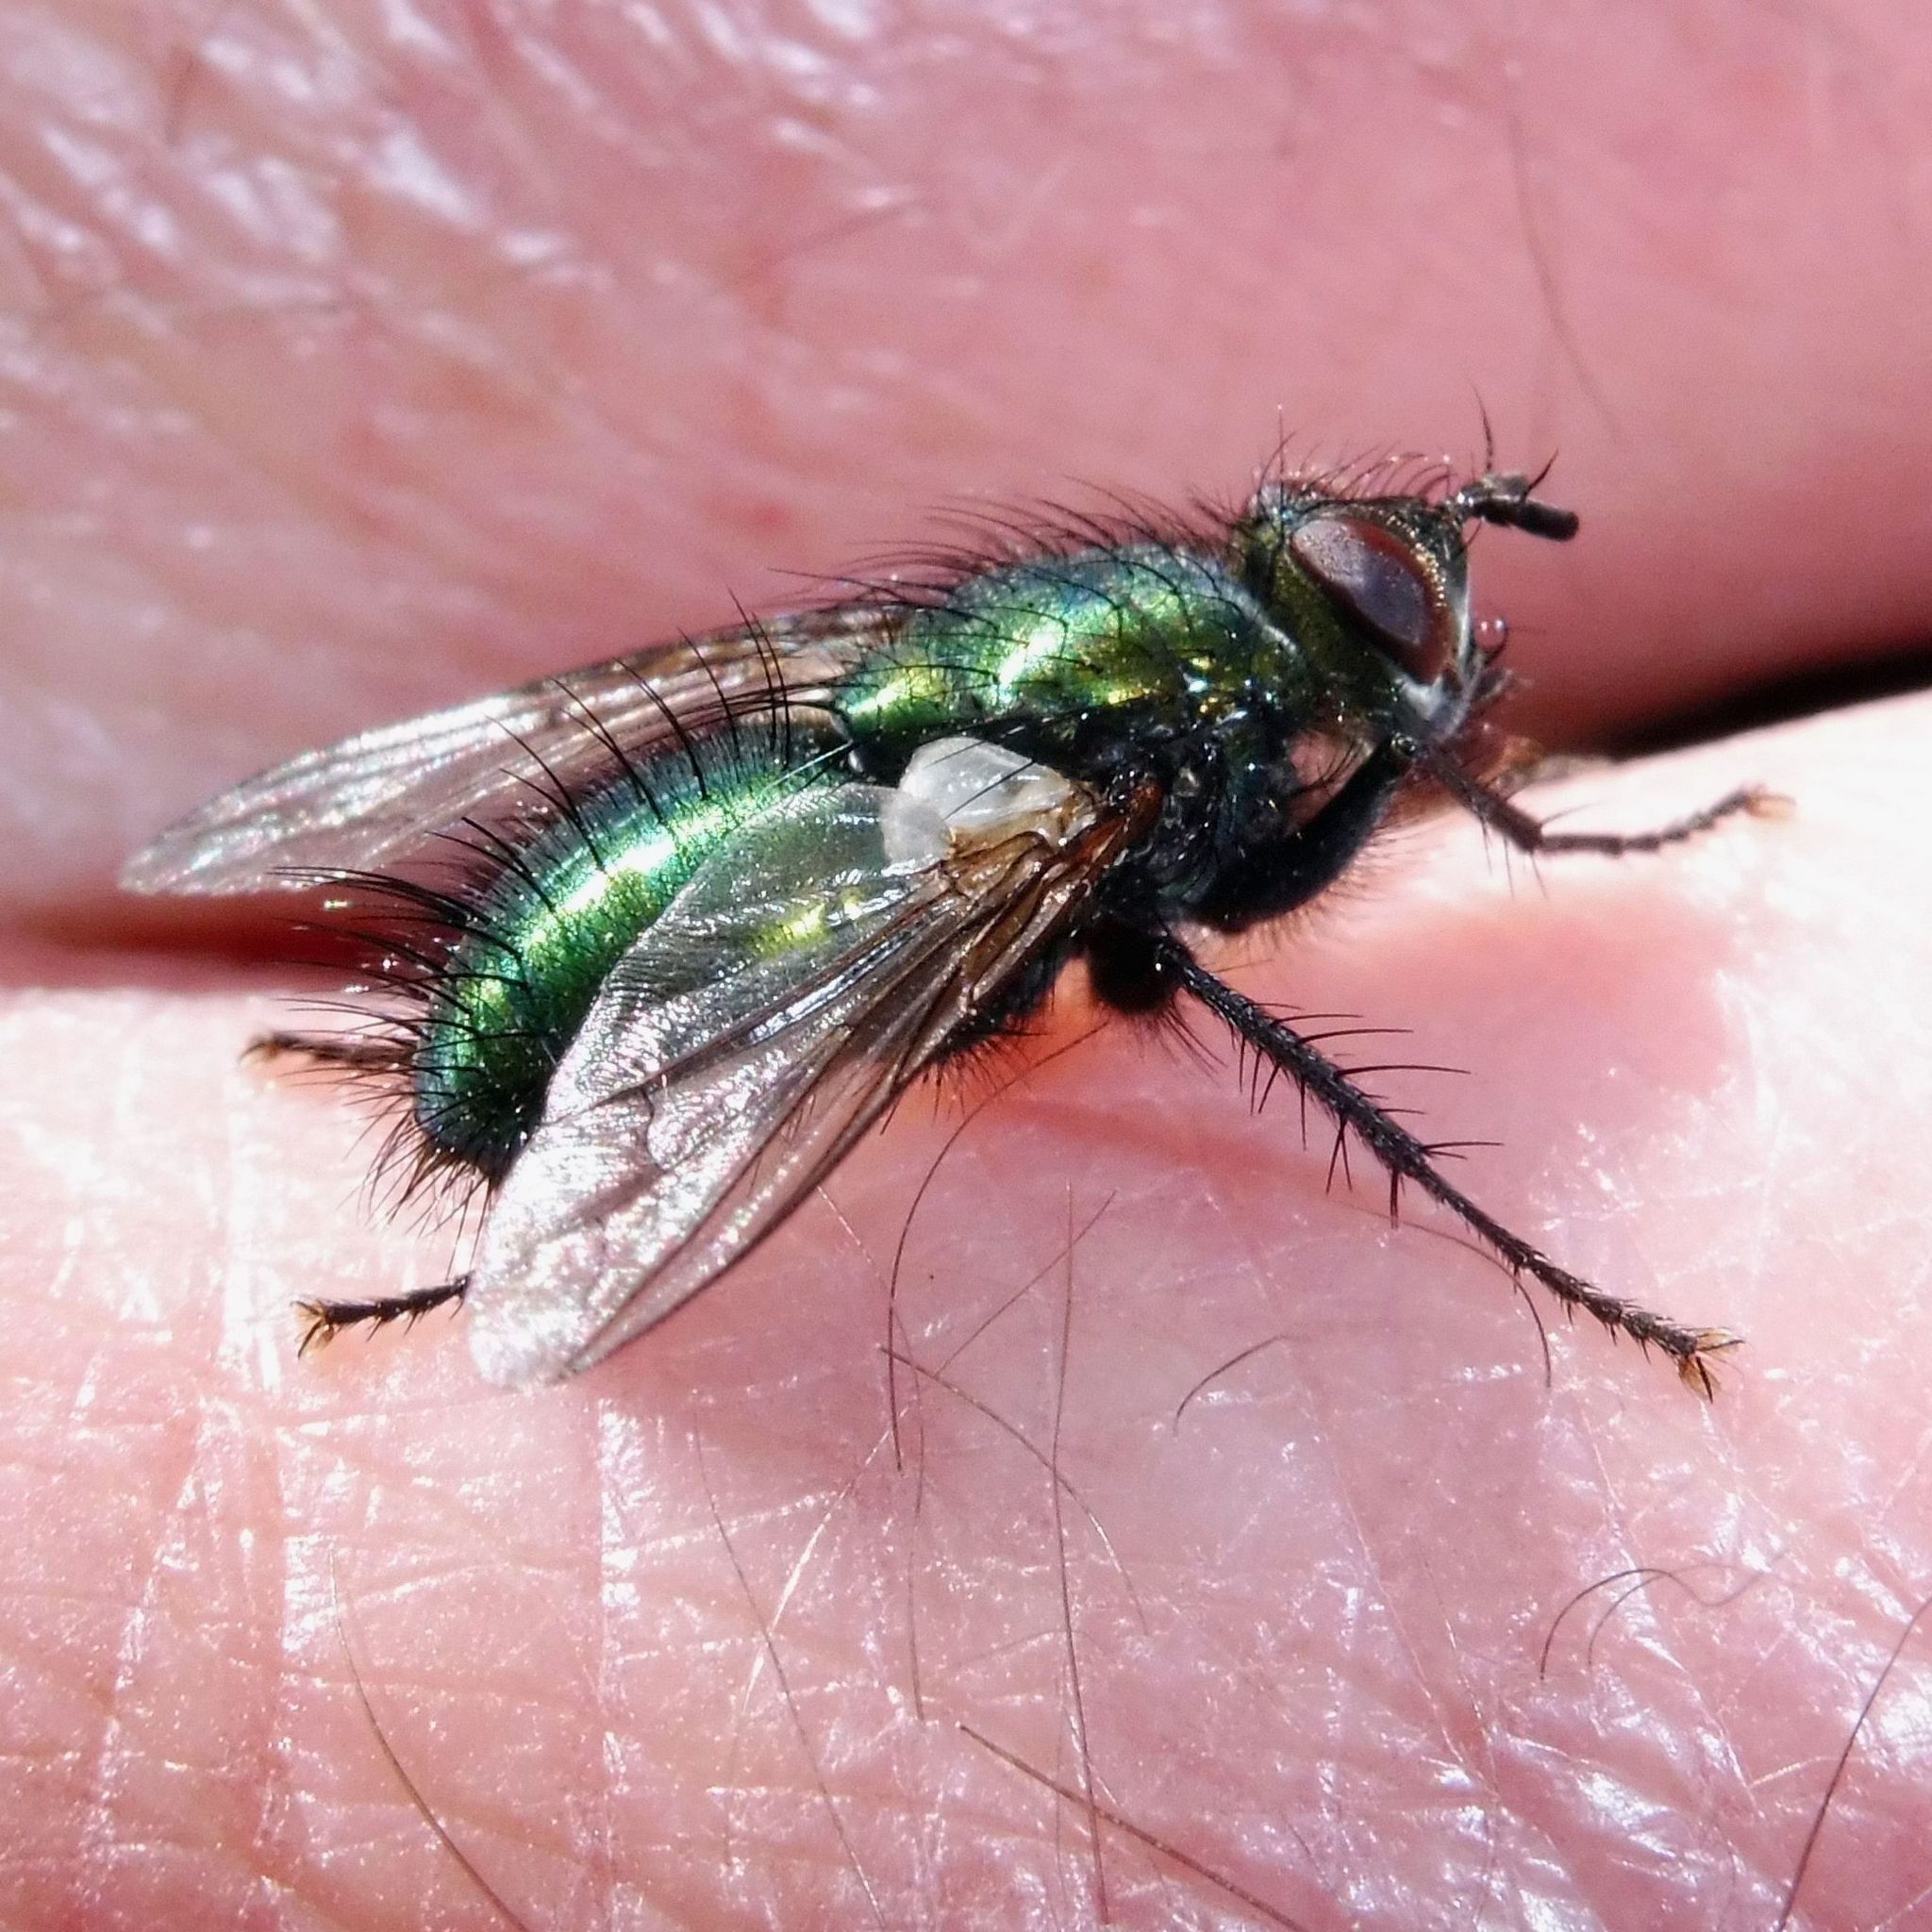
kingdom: Animalia
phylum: Arthropoda
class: Insecta
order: Diptera
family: Tachinidae
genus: Gymnocheta
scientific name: Gymnocheta viridis
